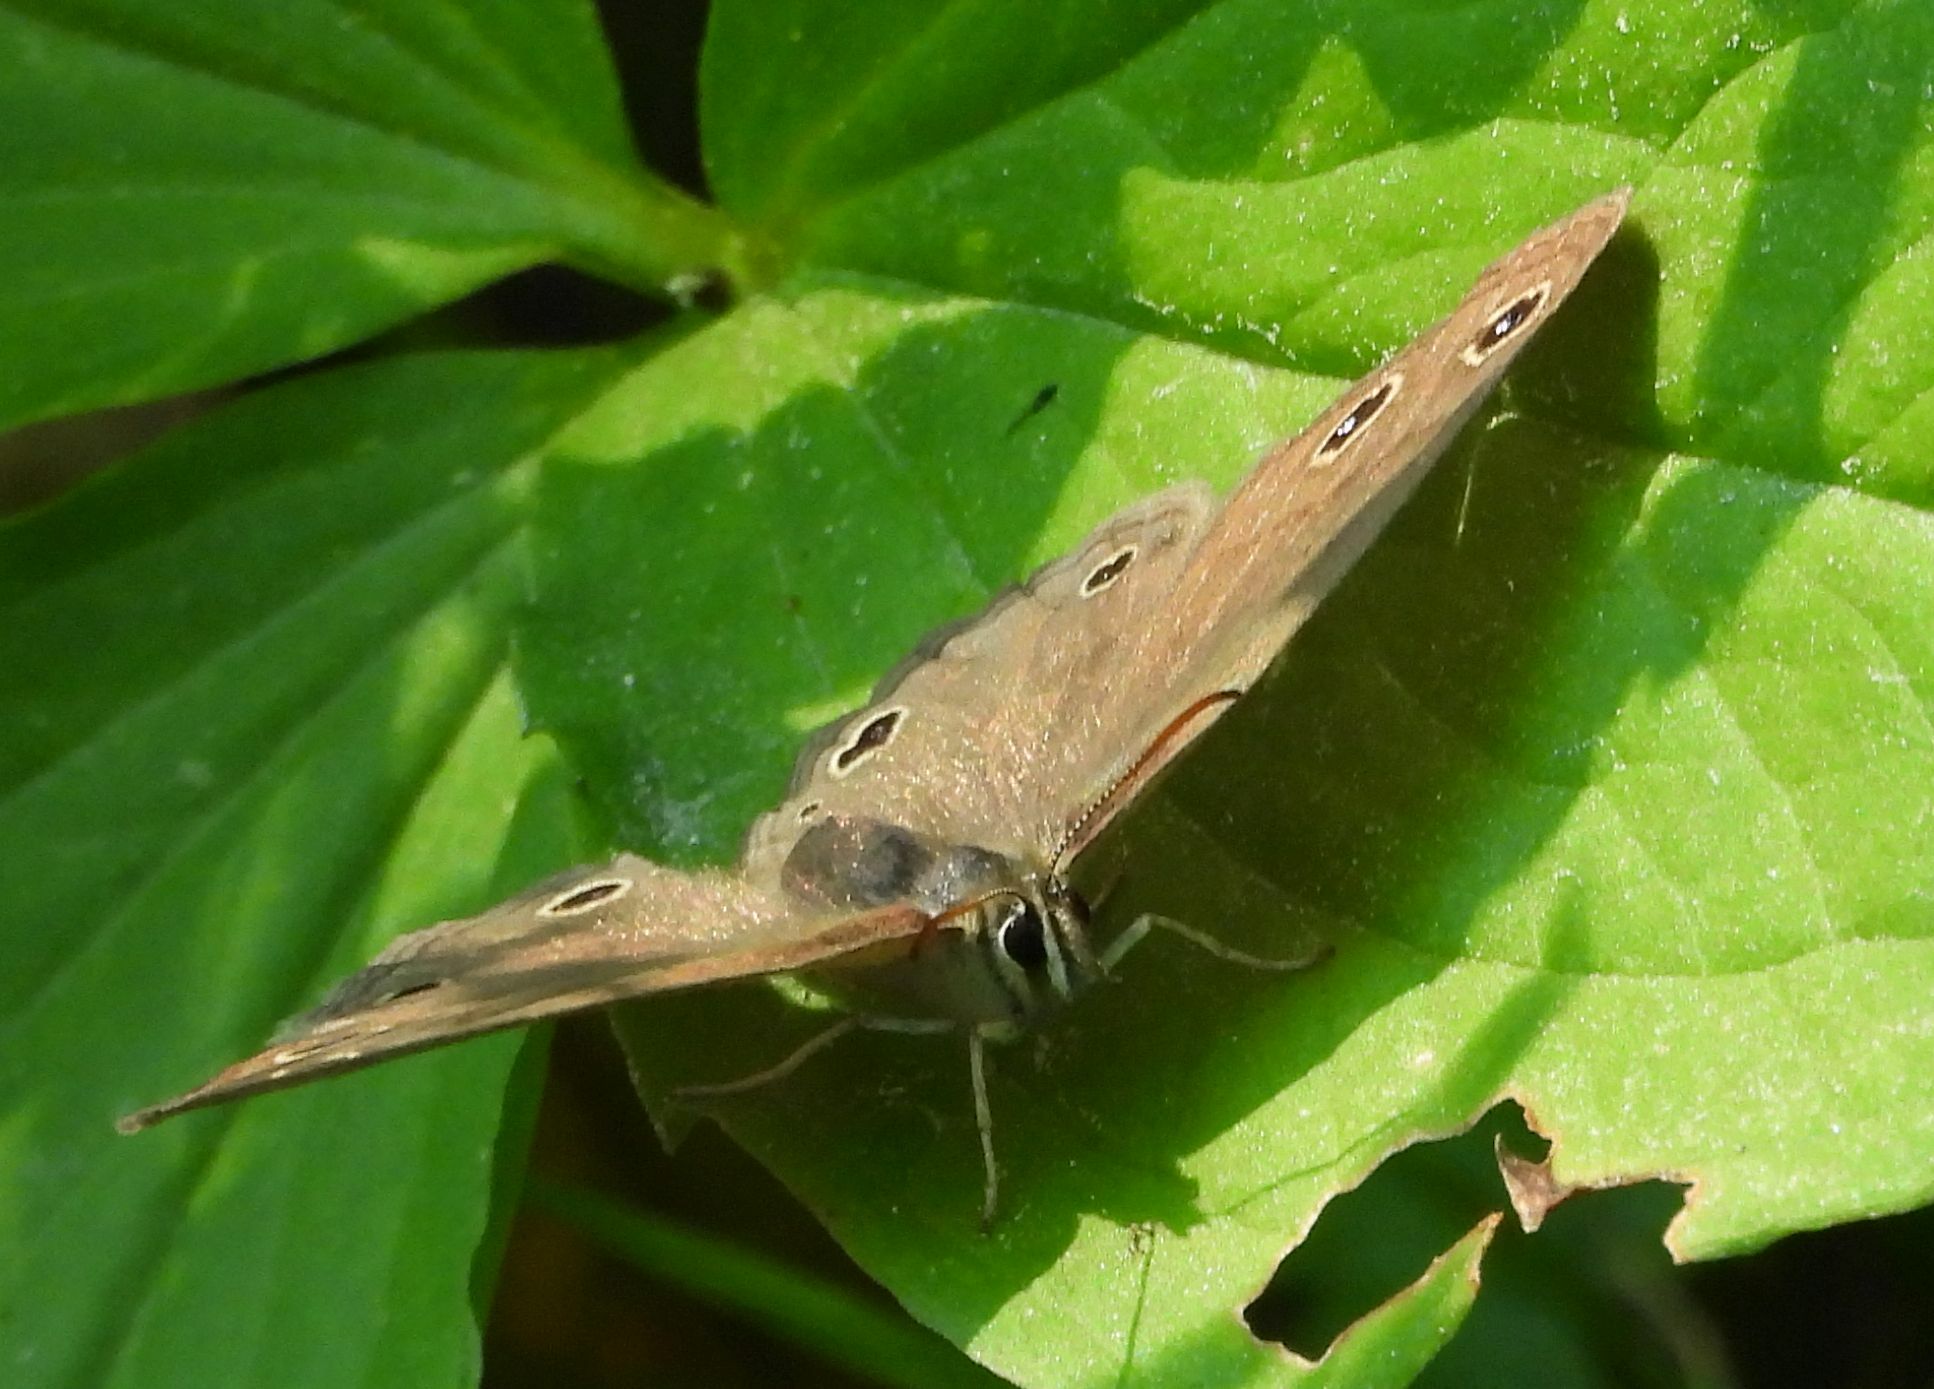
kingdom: Animalia
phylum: Arthropoda
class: Insecta
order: Lepidoptera
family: Nymphalidae
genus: Euptychia
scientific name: Euptychia cymela
